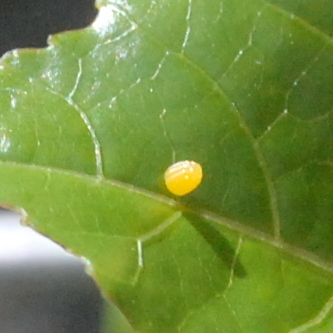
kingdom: Animalia
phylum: Arthropoda
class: Insecta
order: Lepidoptera
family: Nymphalidae
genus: Dione
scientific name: Dione vanillae
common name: Gulf fritillary
